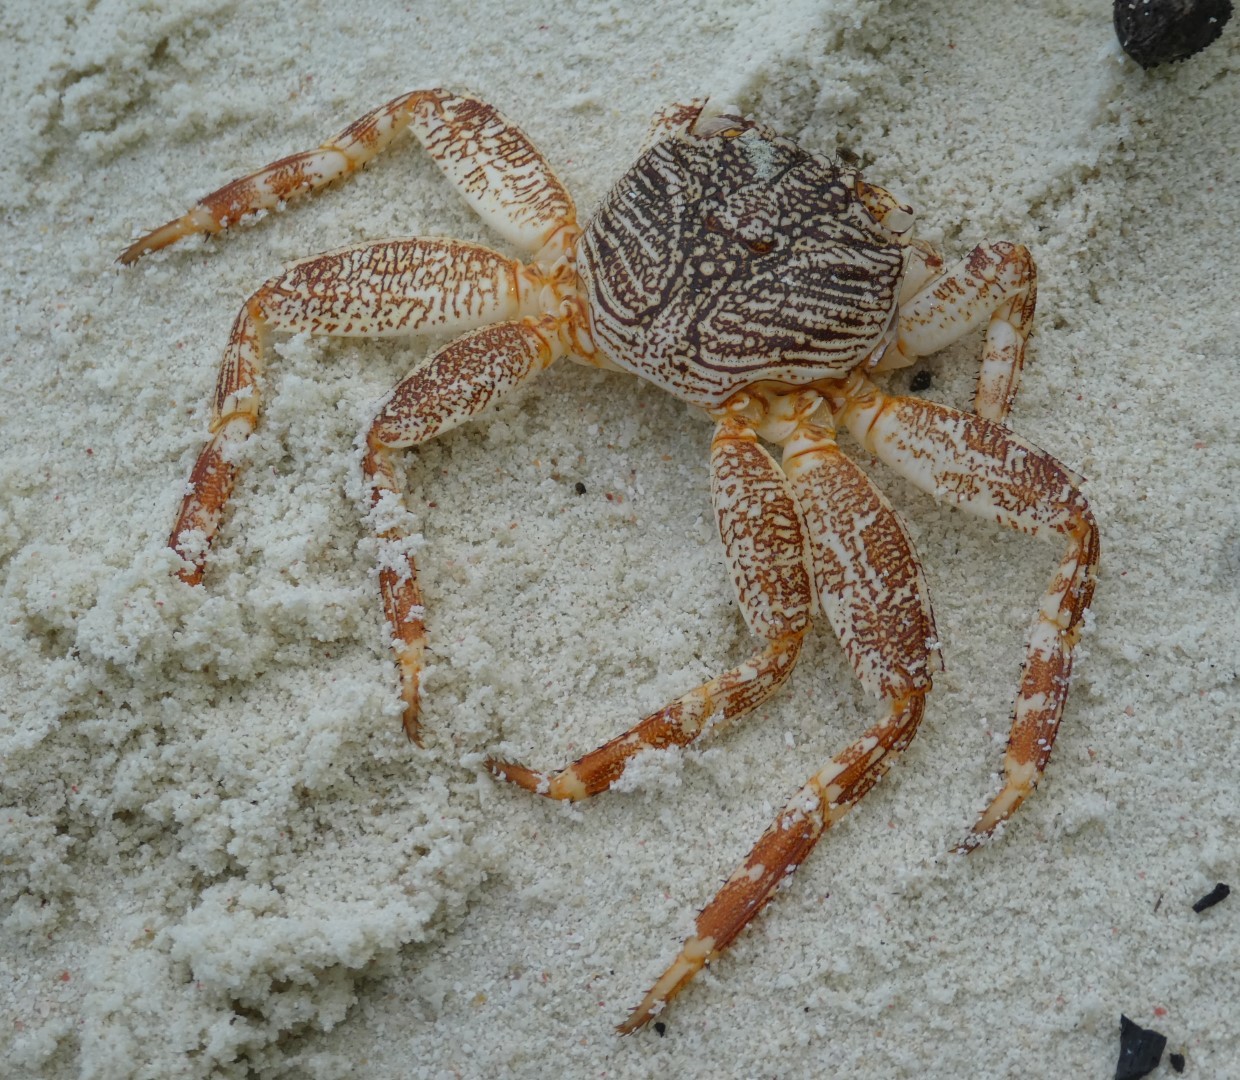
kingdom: Animalia
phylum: Arthropoda
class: Malacostraca
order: Decapoda
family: Grapsidae
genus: Grapsus
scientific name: Grapsus albolineatus
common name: Mottled lightfoot crab
